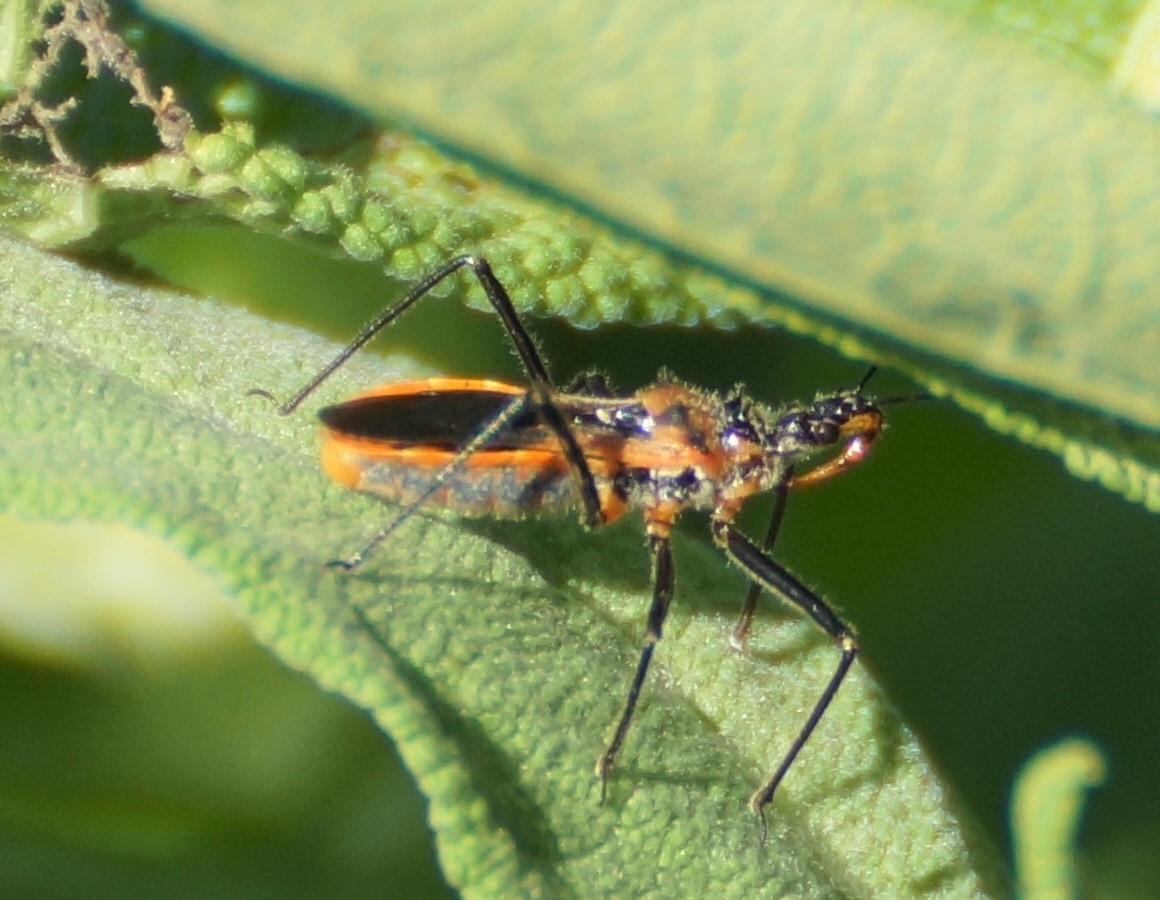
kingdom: Animalia
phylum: Arthropoda
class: Insecta
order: Hemiptera
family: Reduviidae
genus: Gminatus
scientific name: Gminatus australis
